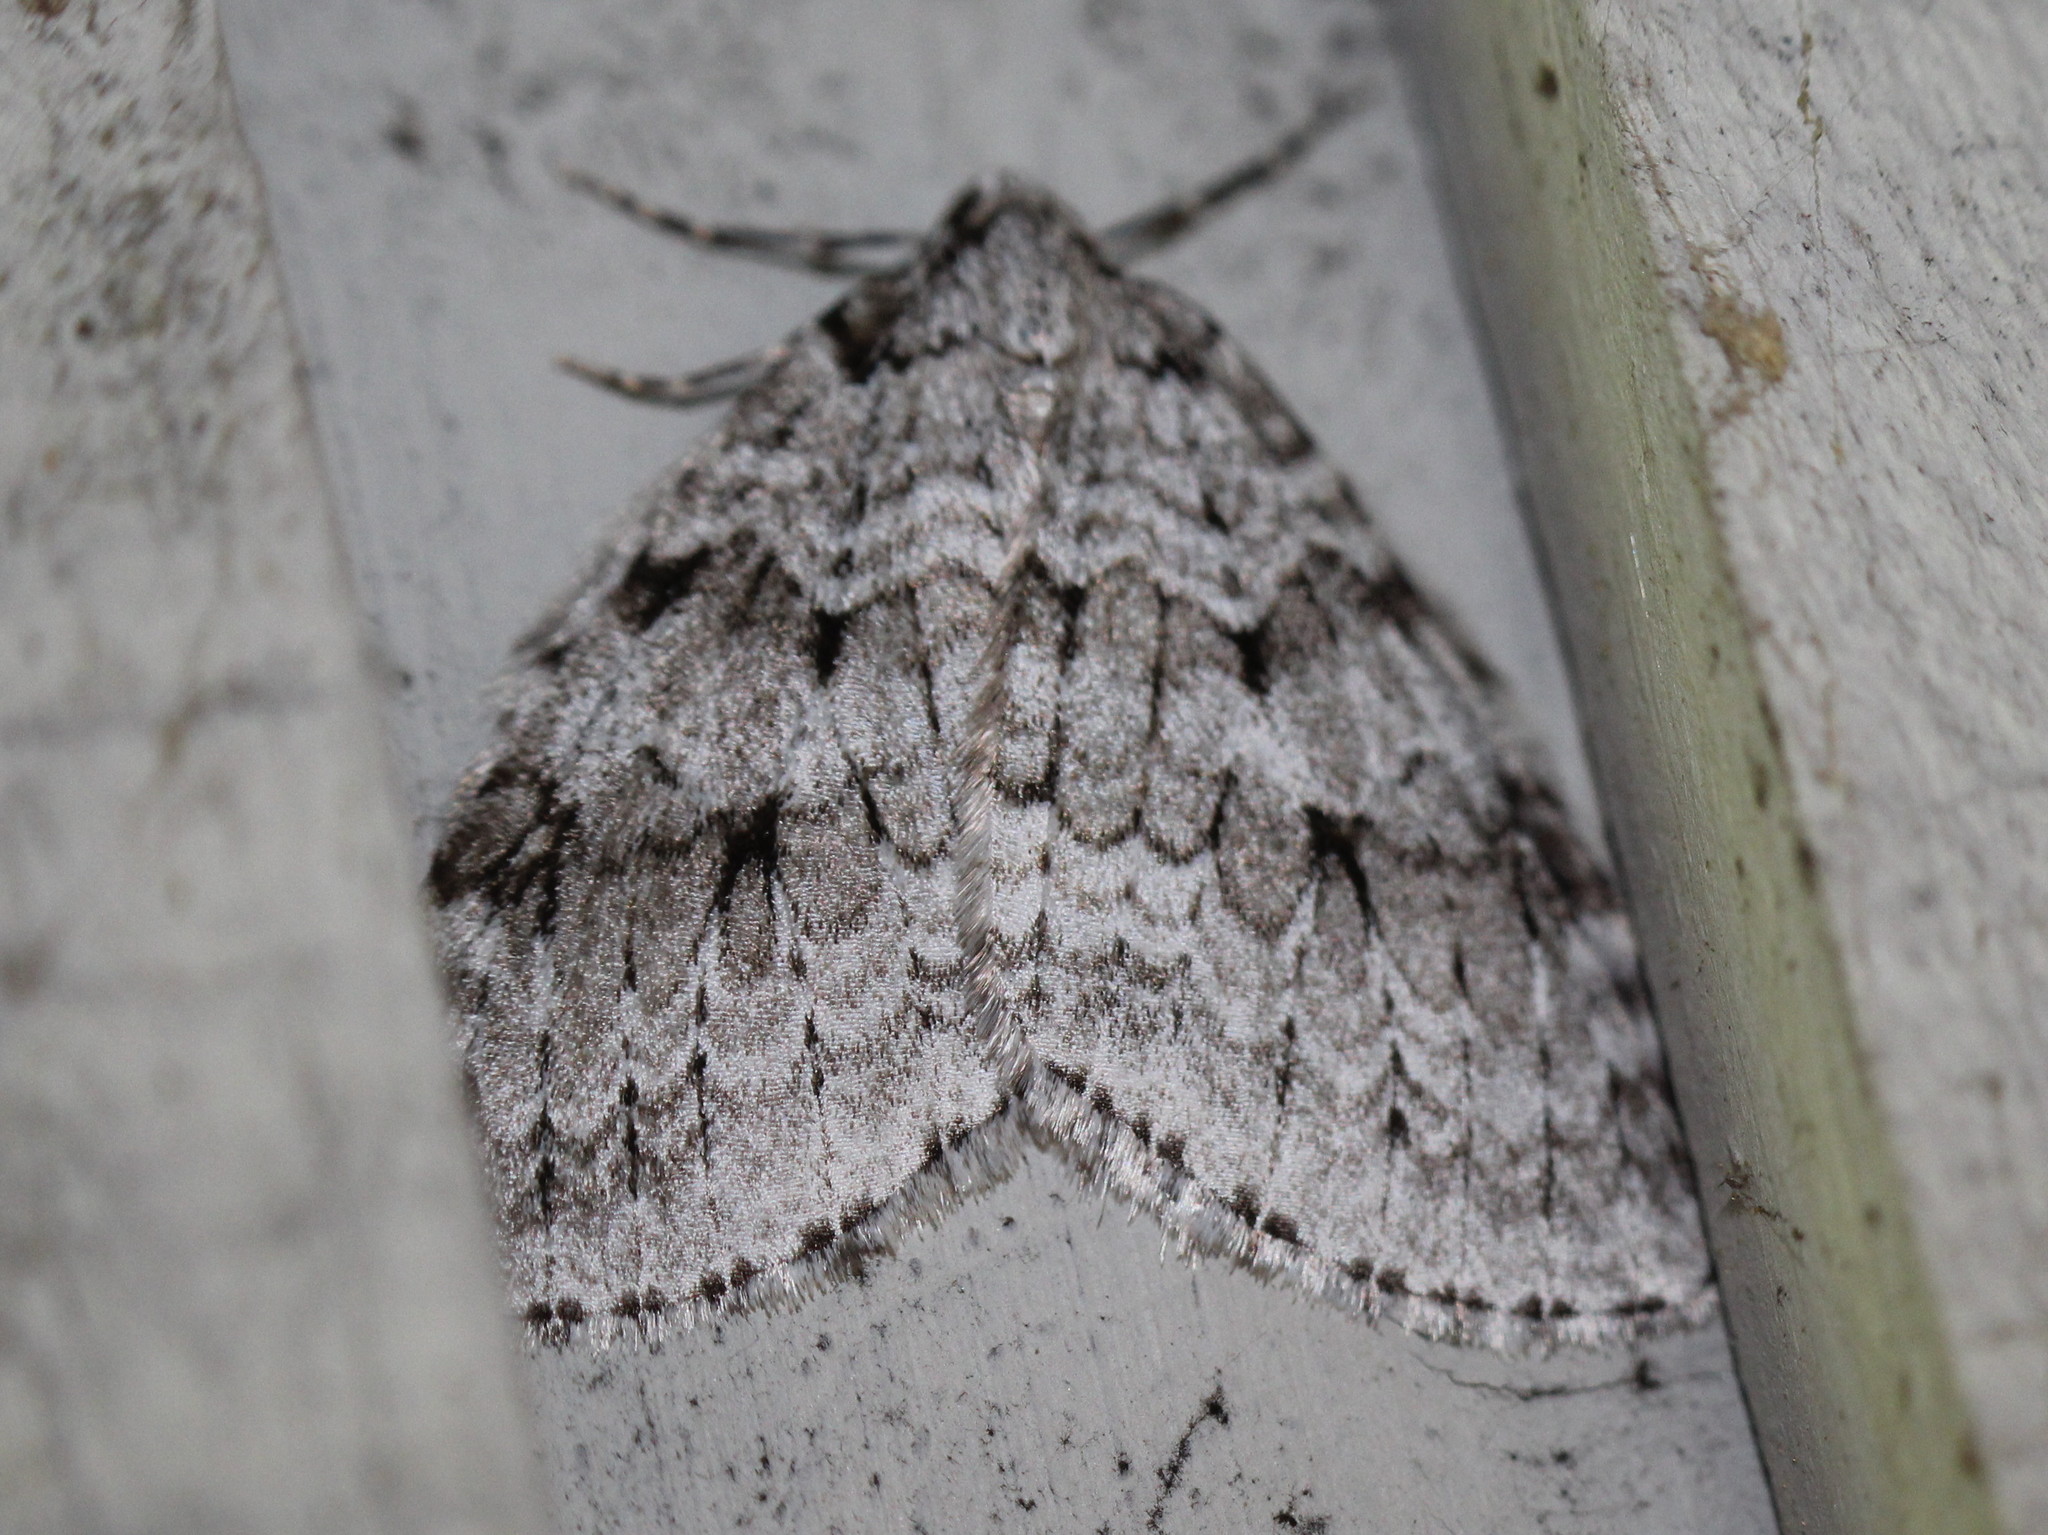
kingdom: Animalia
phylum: Arthropoda
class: Insecta
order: Lepidoptera
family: Geometridae
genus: Epirrita
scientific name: Epirrita autumnata
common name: Autumnal moth
